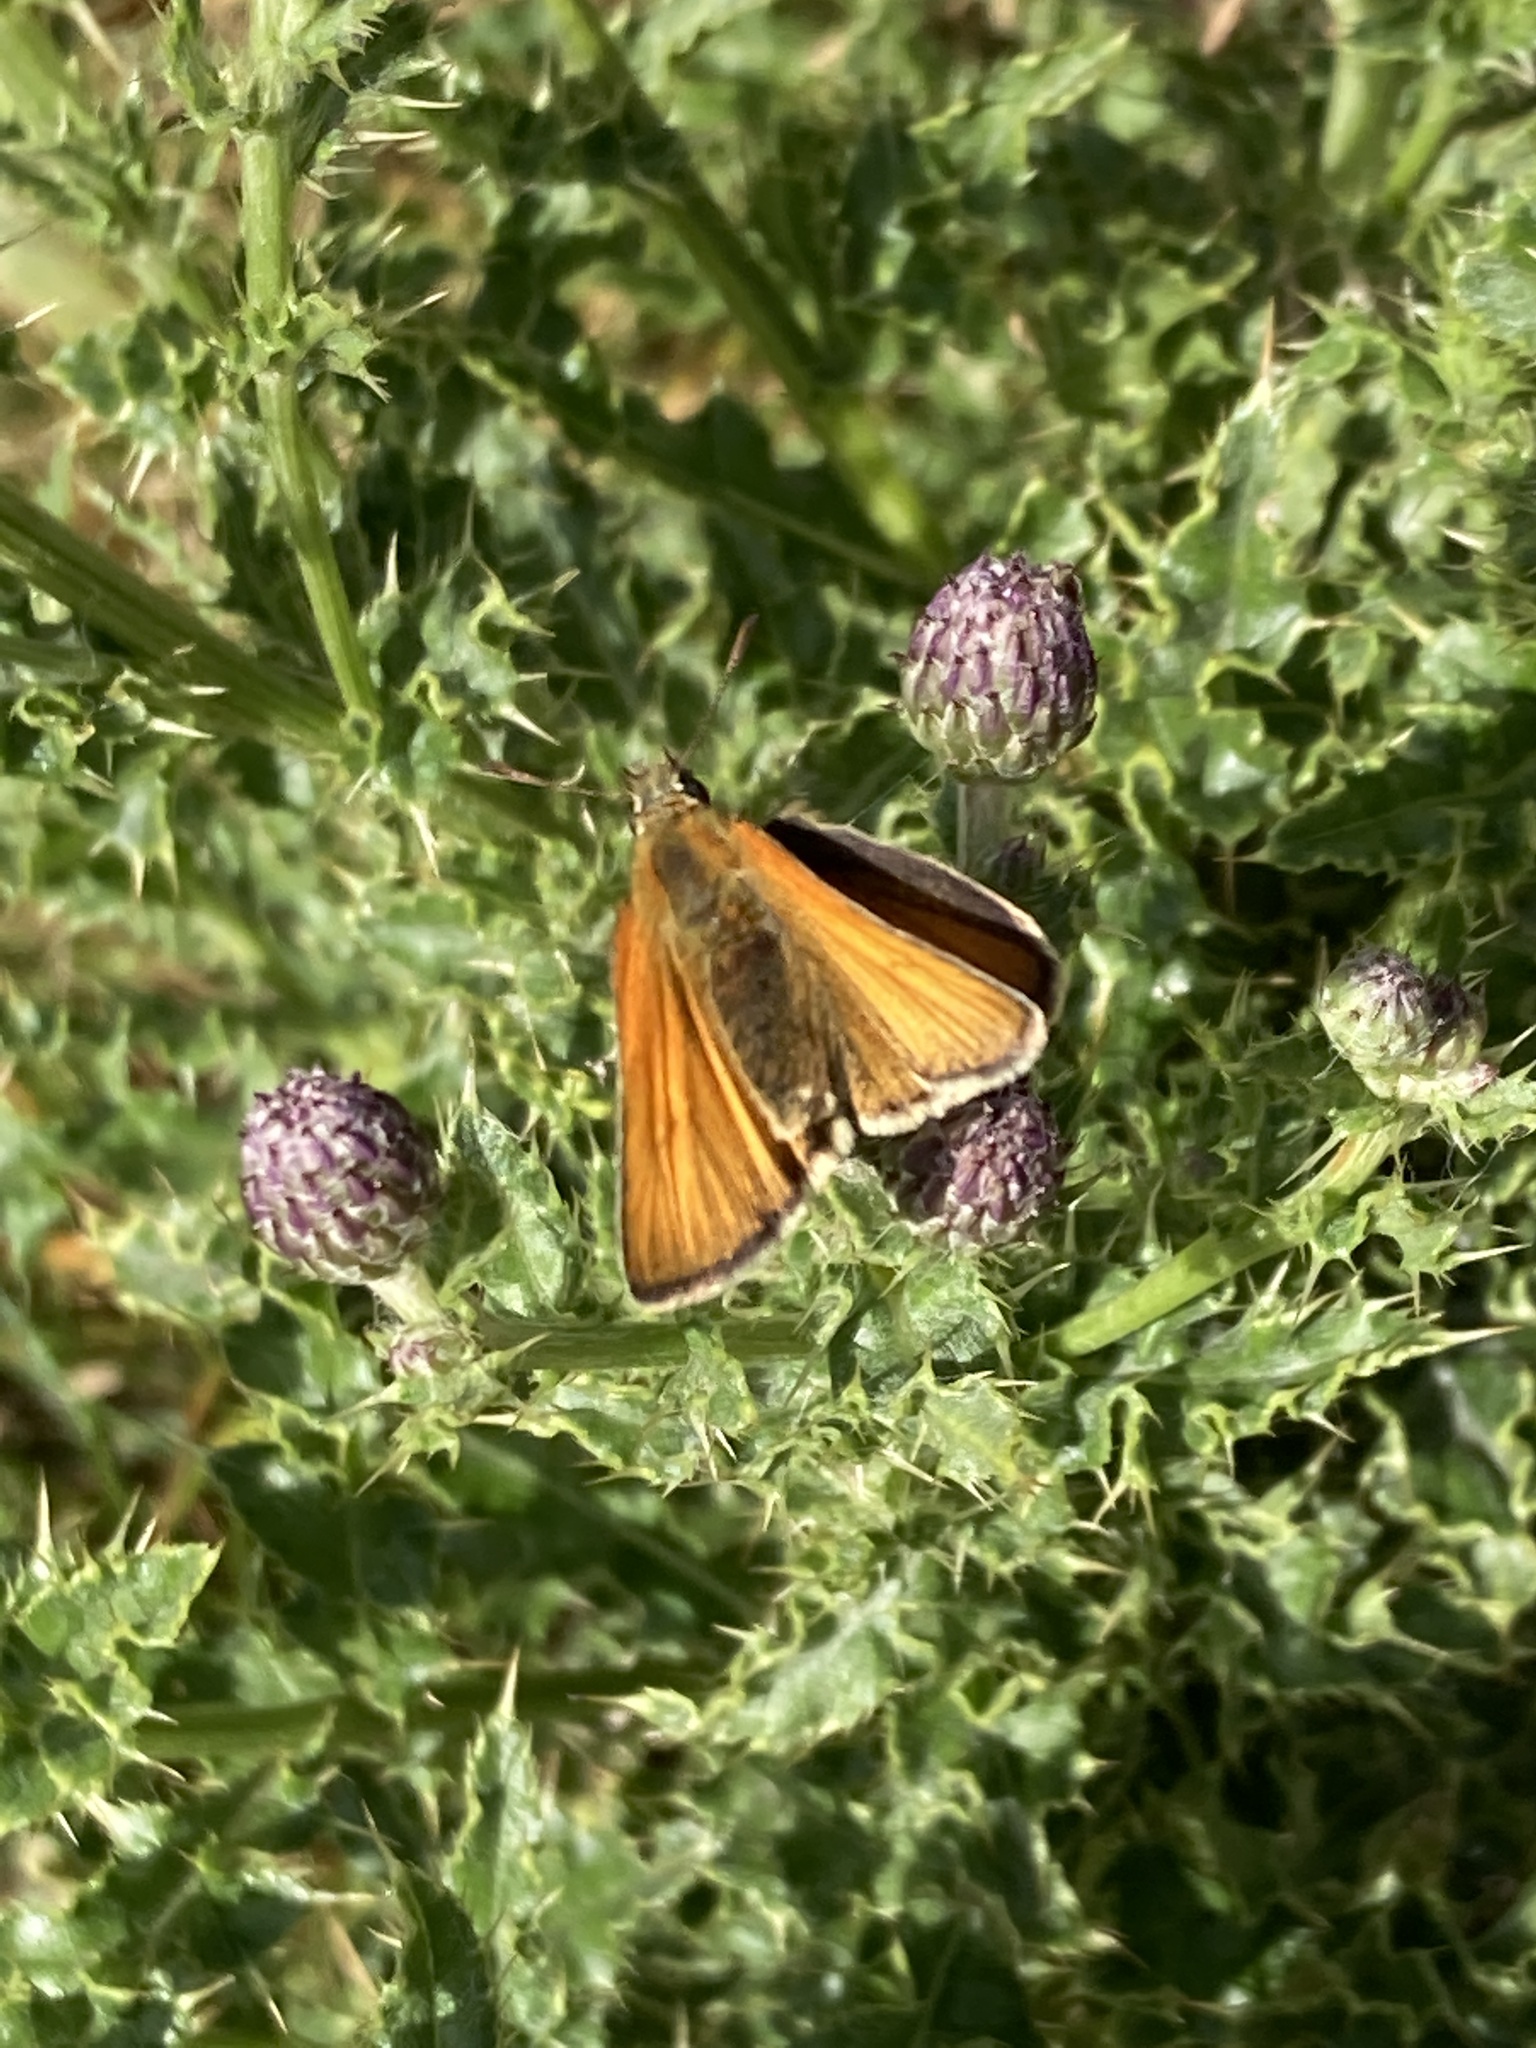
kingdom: Animalia
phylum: Arthropoda
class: Insecta
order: Lepidoptera
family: Hesperiidae
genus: Thymelicus
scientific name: Thymelicus sylvestris
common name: Small skipper
